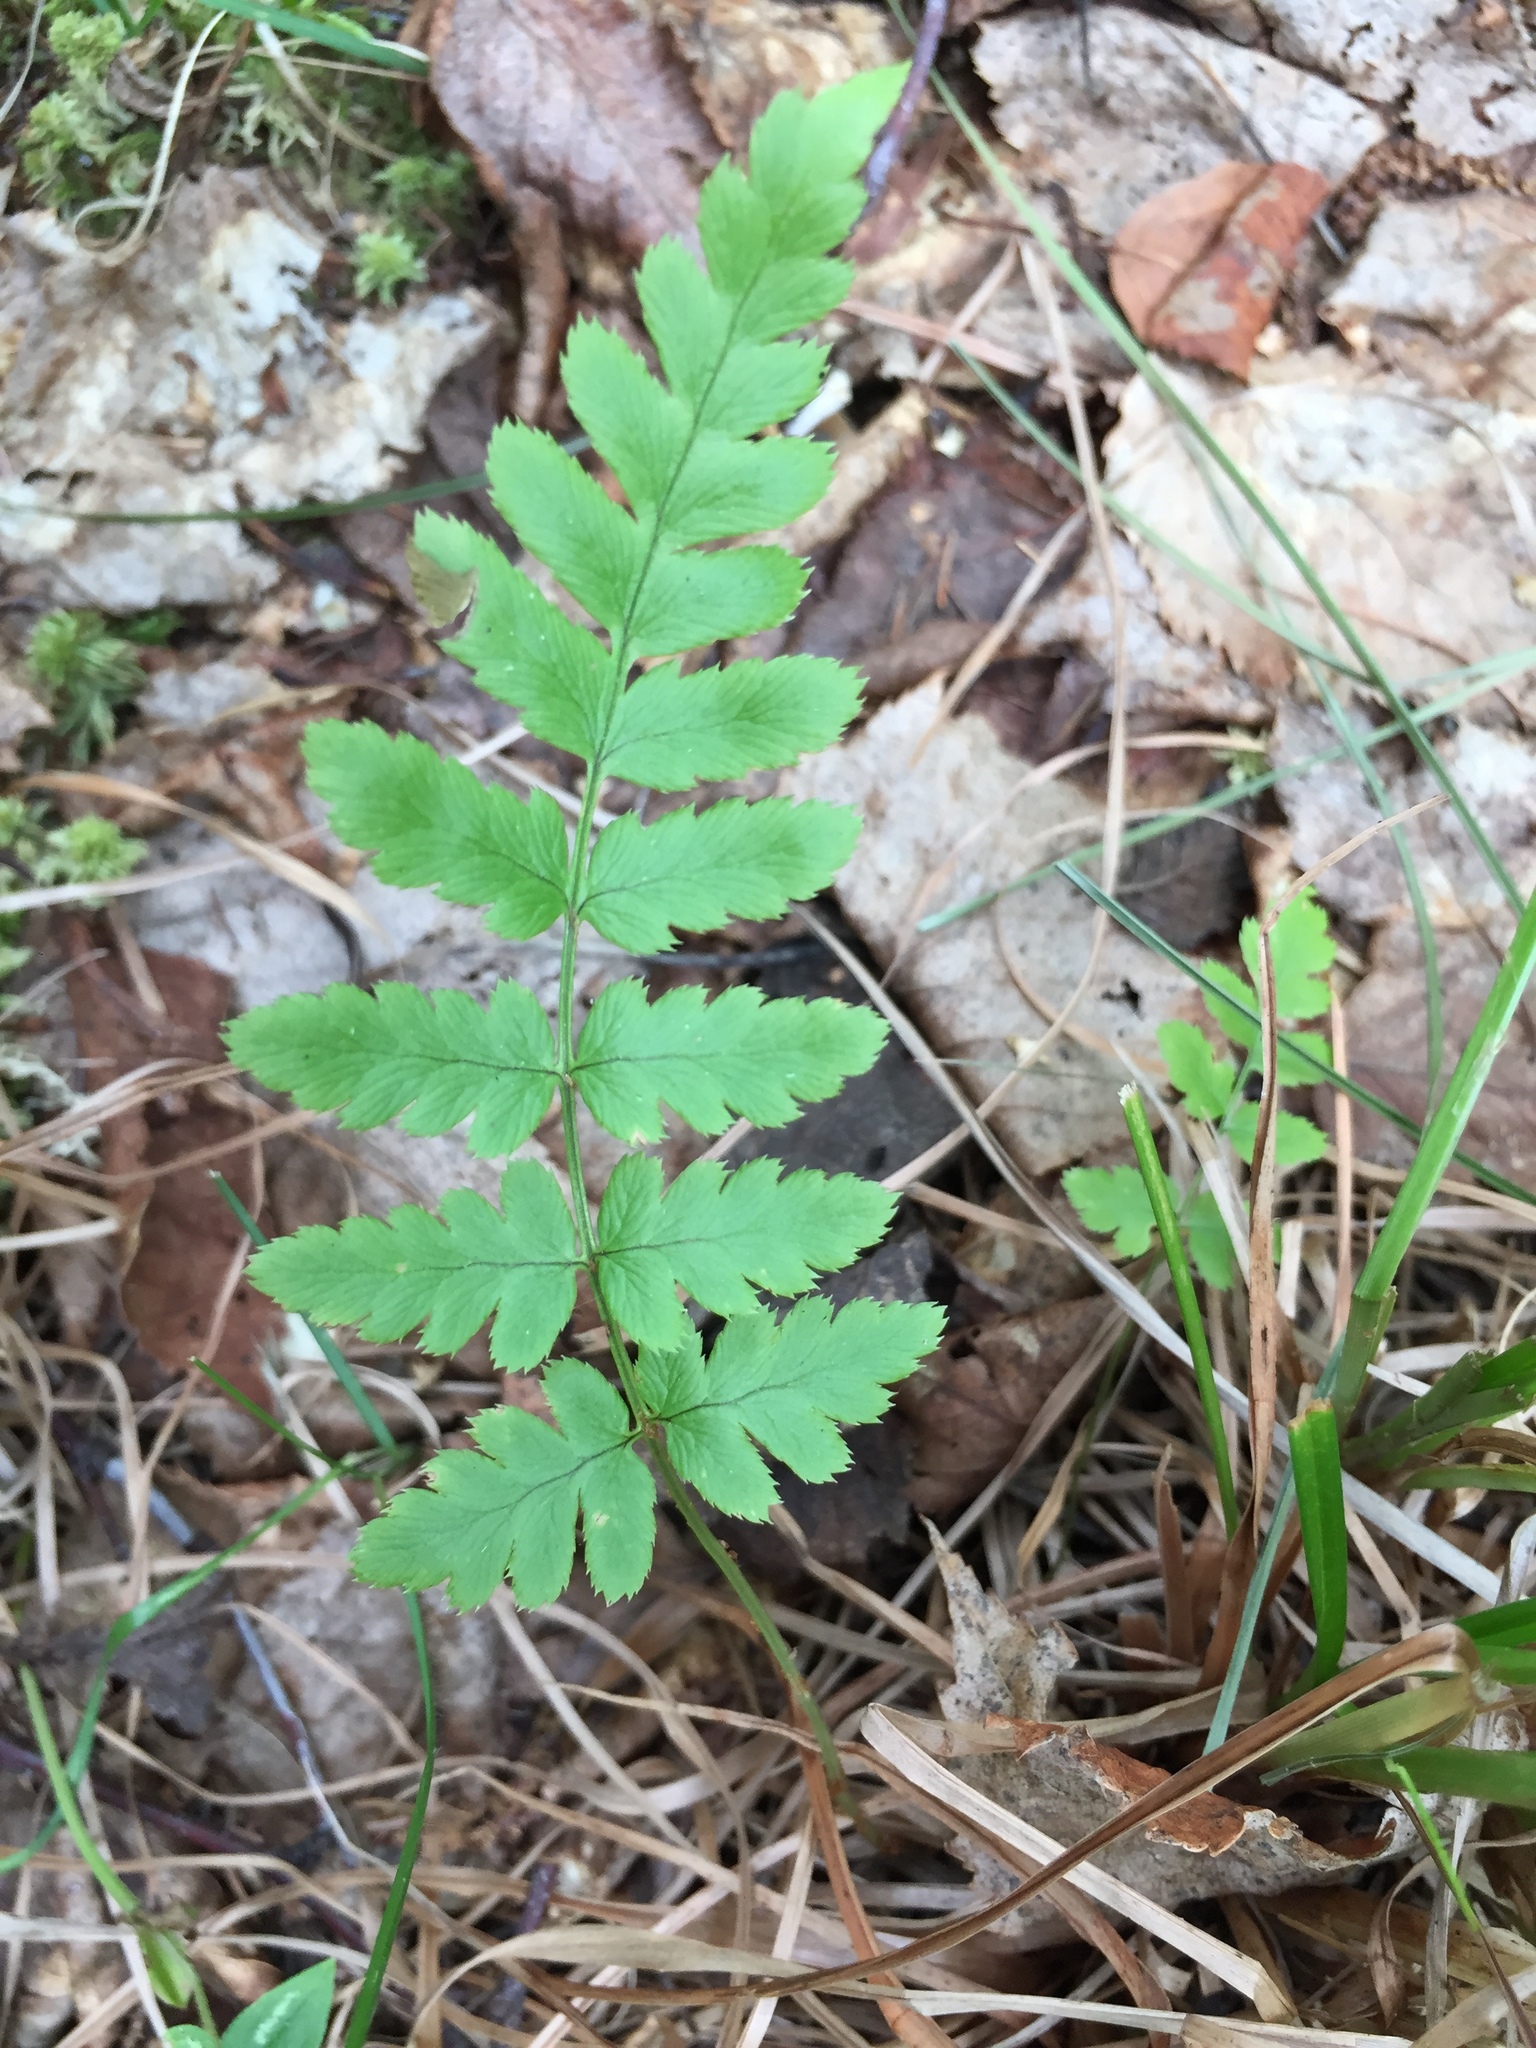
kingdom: Plantae
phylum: Tracheophyta
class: Polypodiopsida
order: Polypodiales
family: Dryopteridaceae
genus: Dryopteris
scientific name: Dryopteris cristata
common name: Crested wood fern
